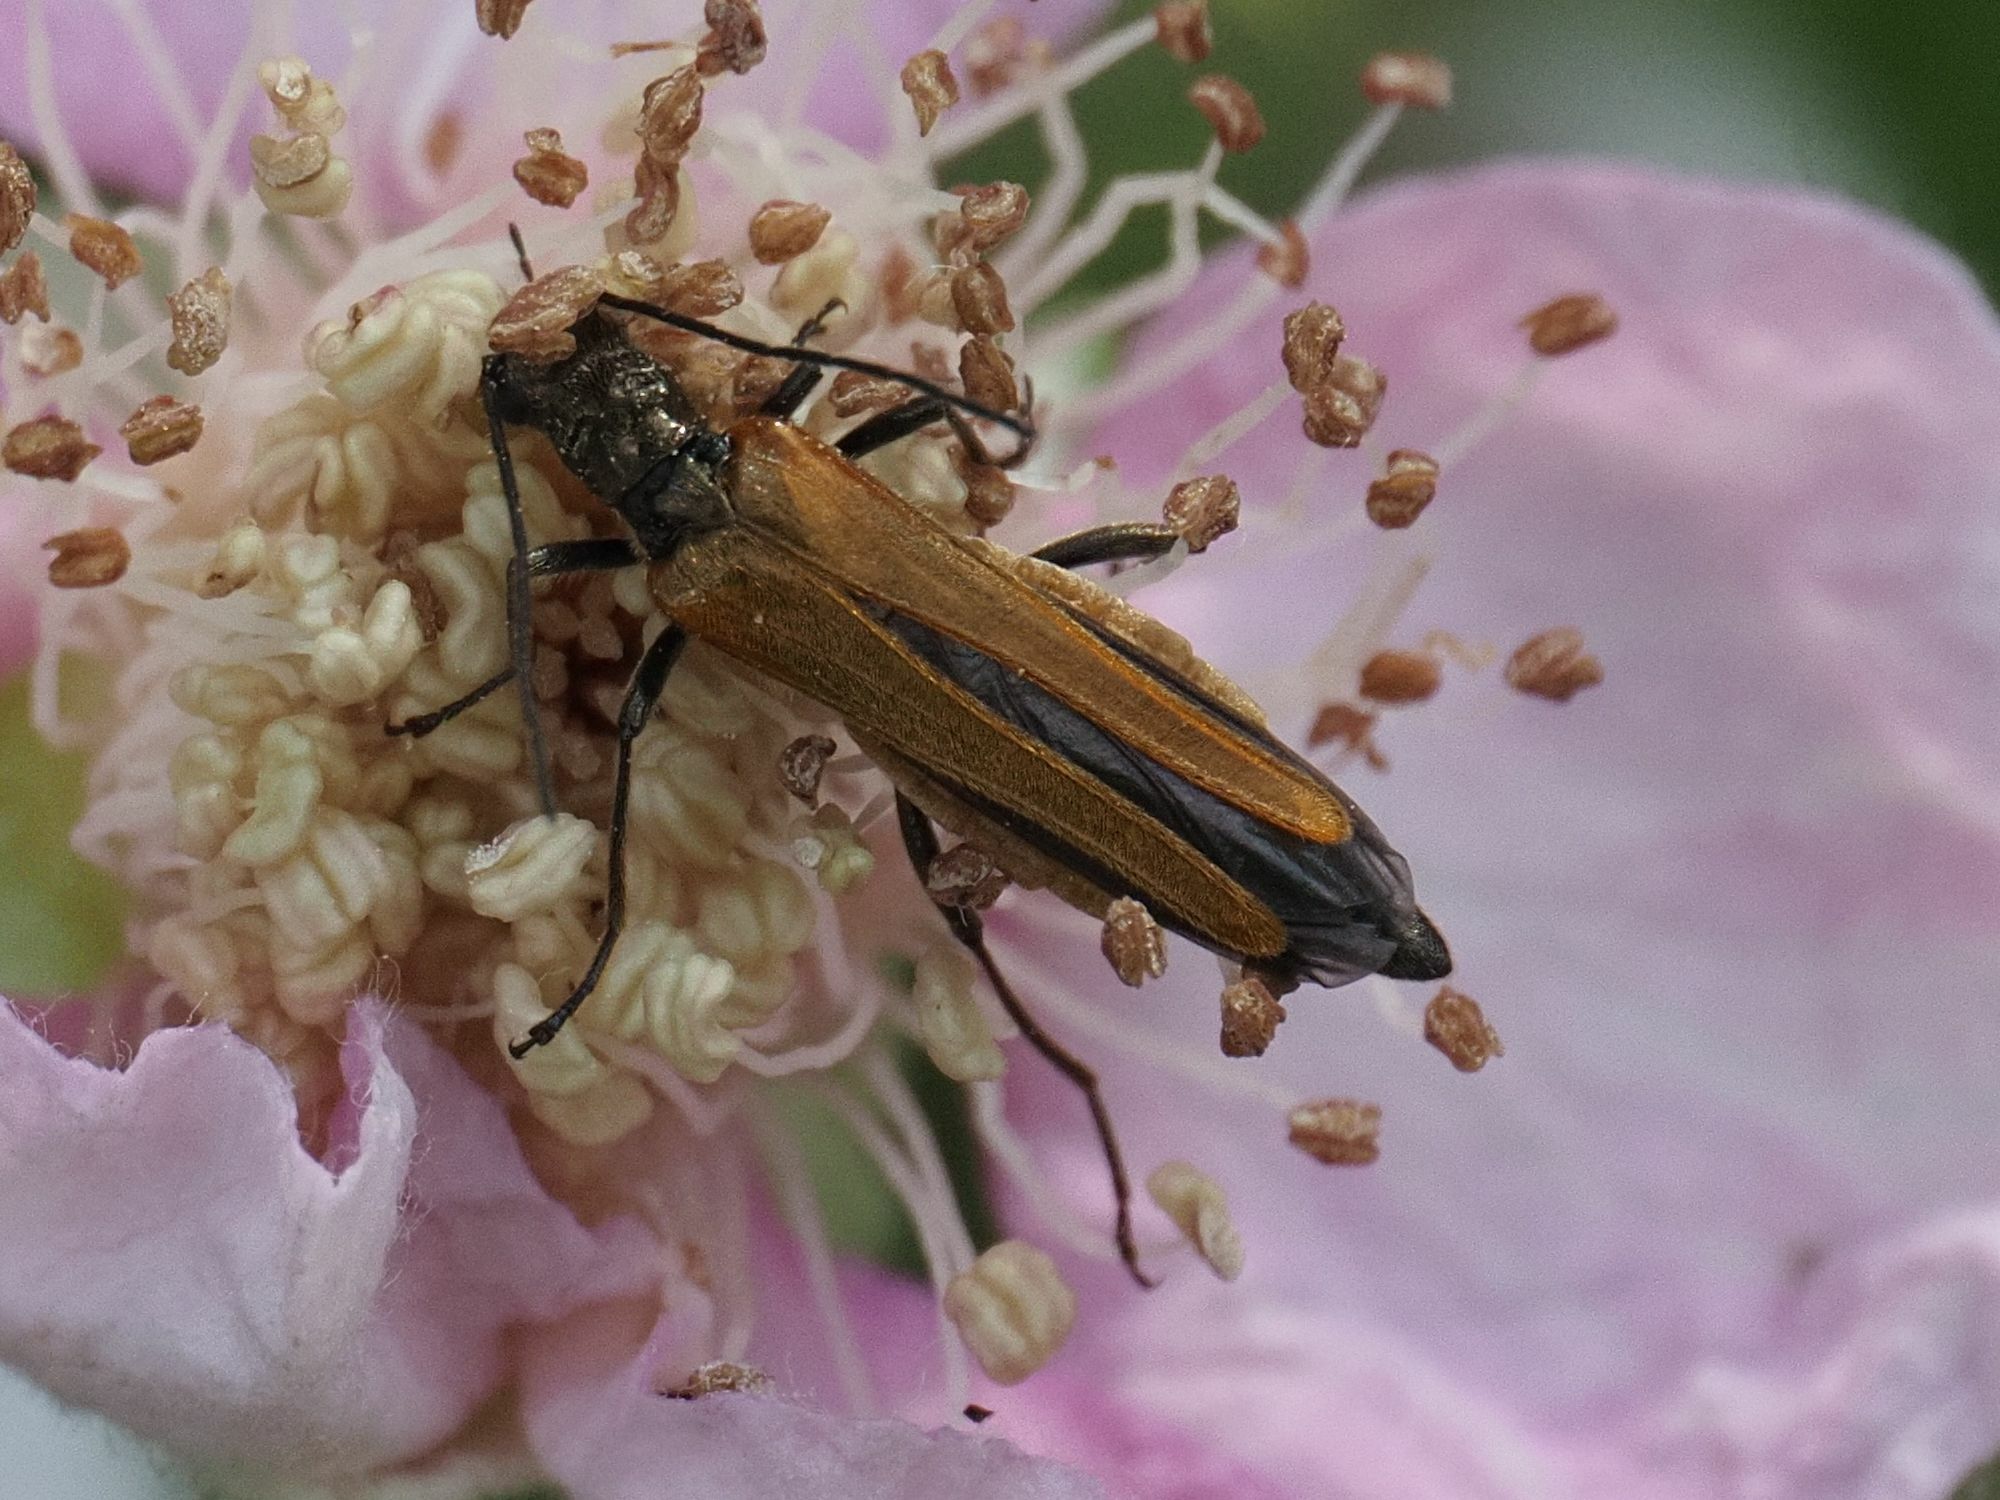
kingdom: Animalia
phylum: Arthropoda
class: Insecta
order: Coleoptera
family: Oedemeridae
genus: Oedemera
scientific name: Oedemera femorata
